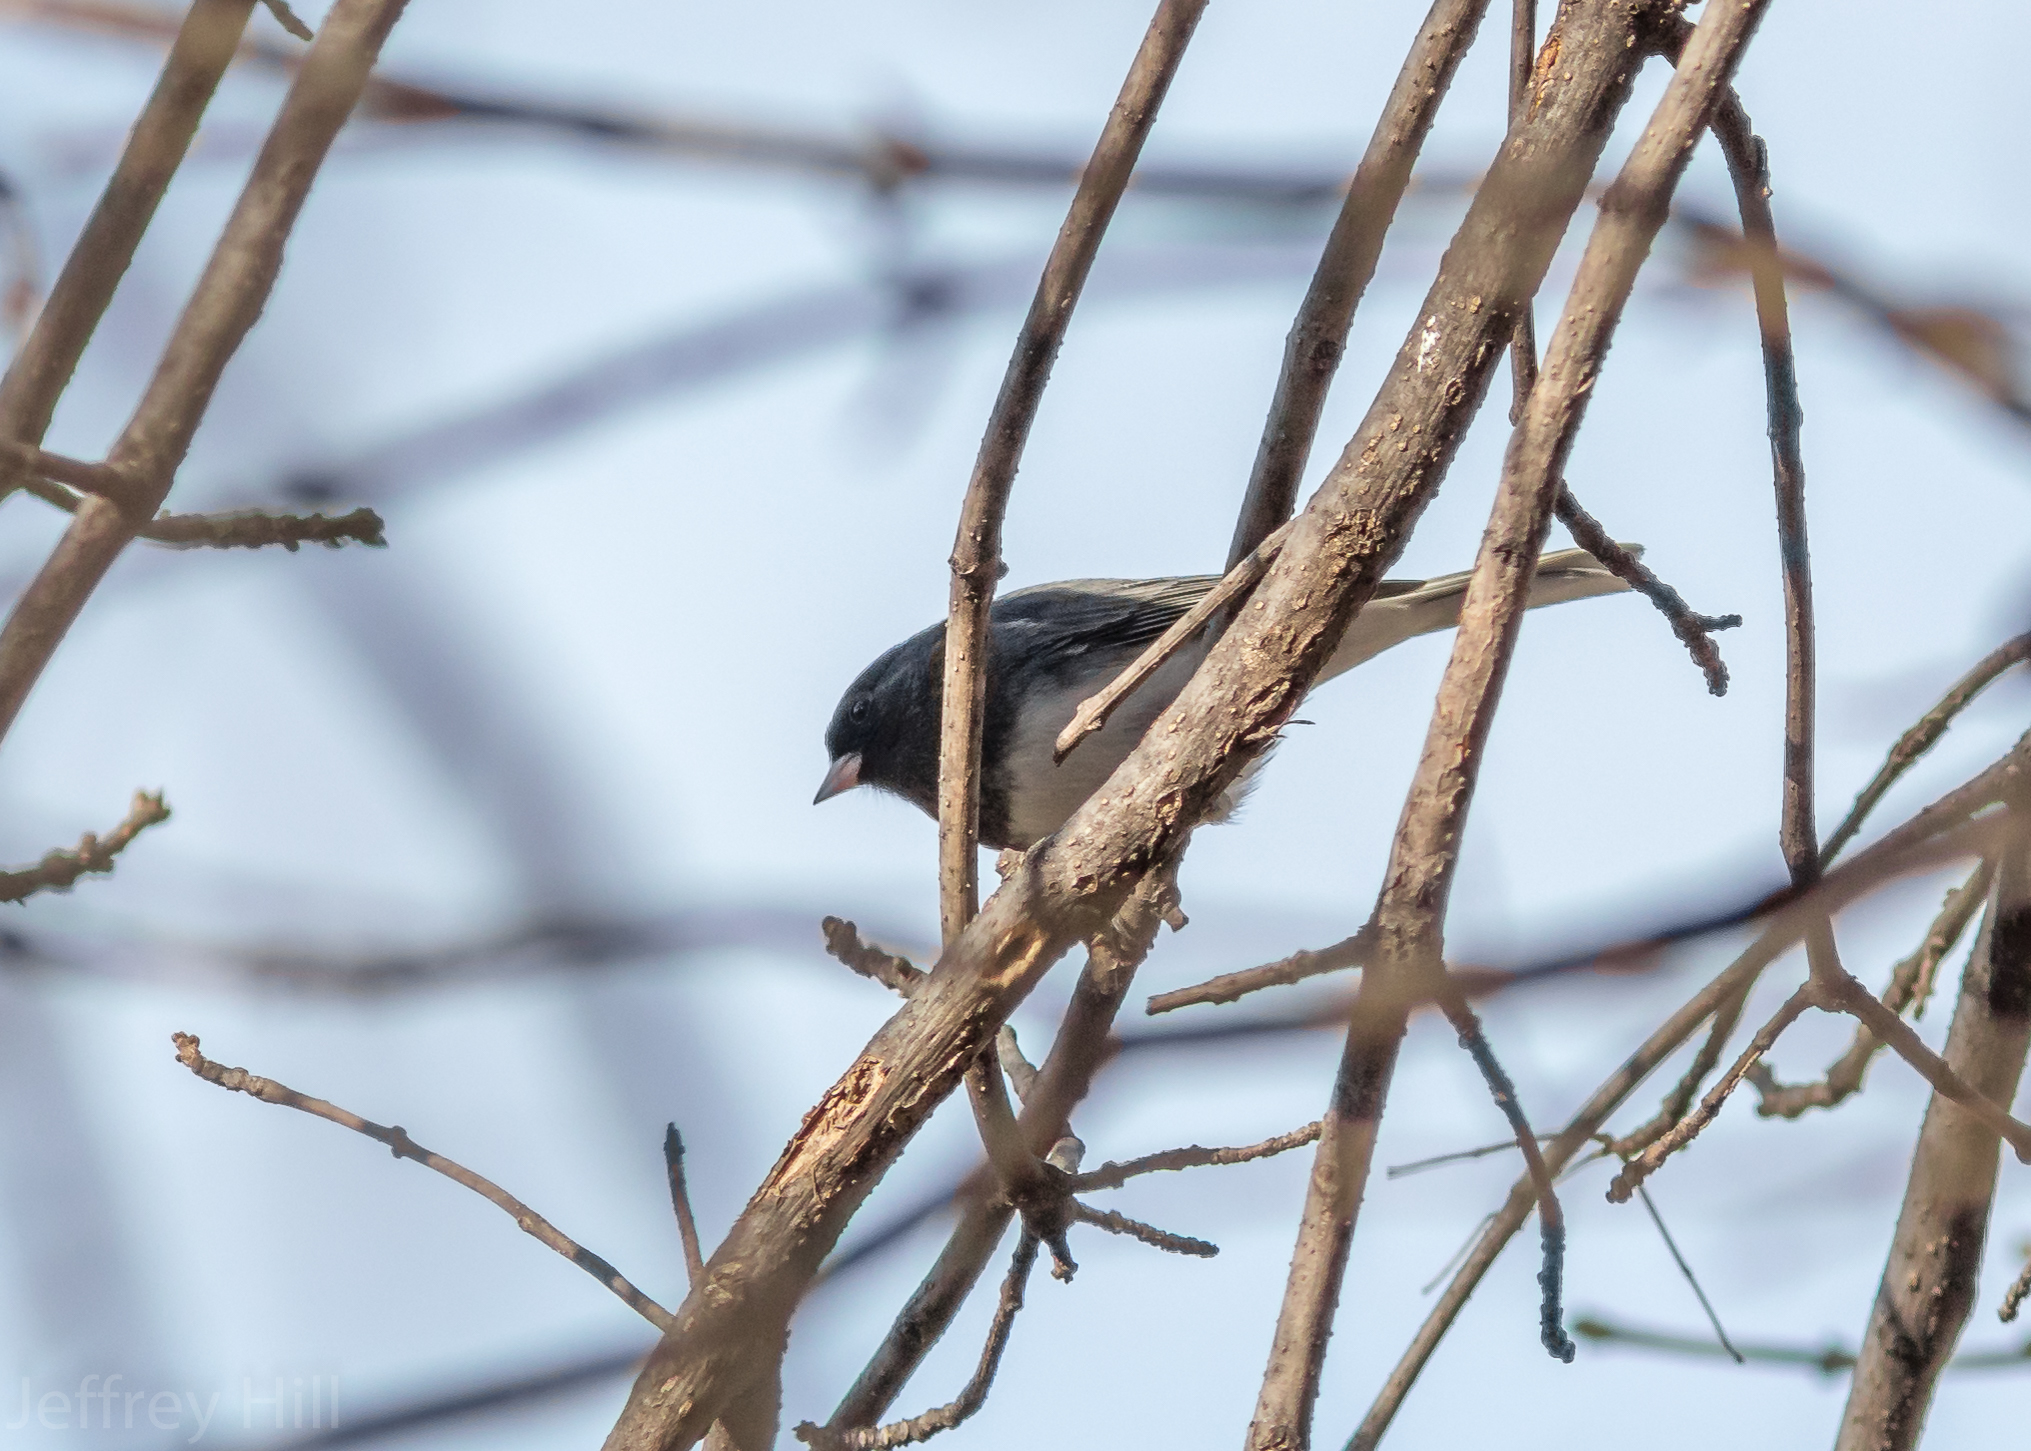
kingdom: Animalia
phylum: Chordata
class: Aves
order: Passeriformes
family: Passerellidae
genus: Junco
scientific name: Junco hyemalis
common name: Dark-eyed junco
